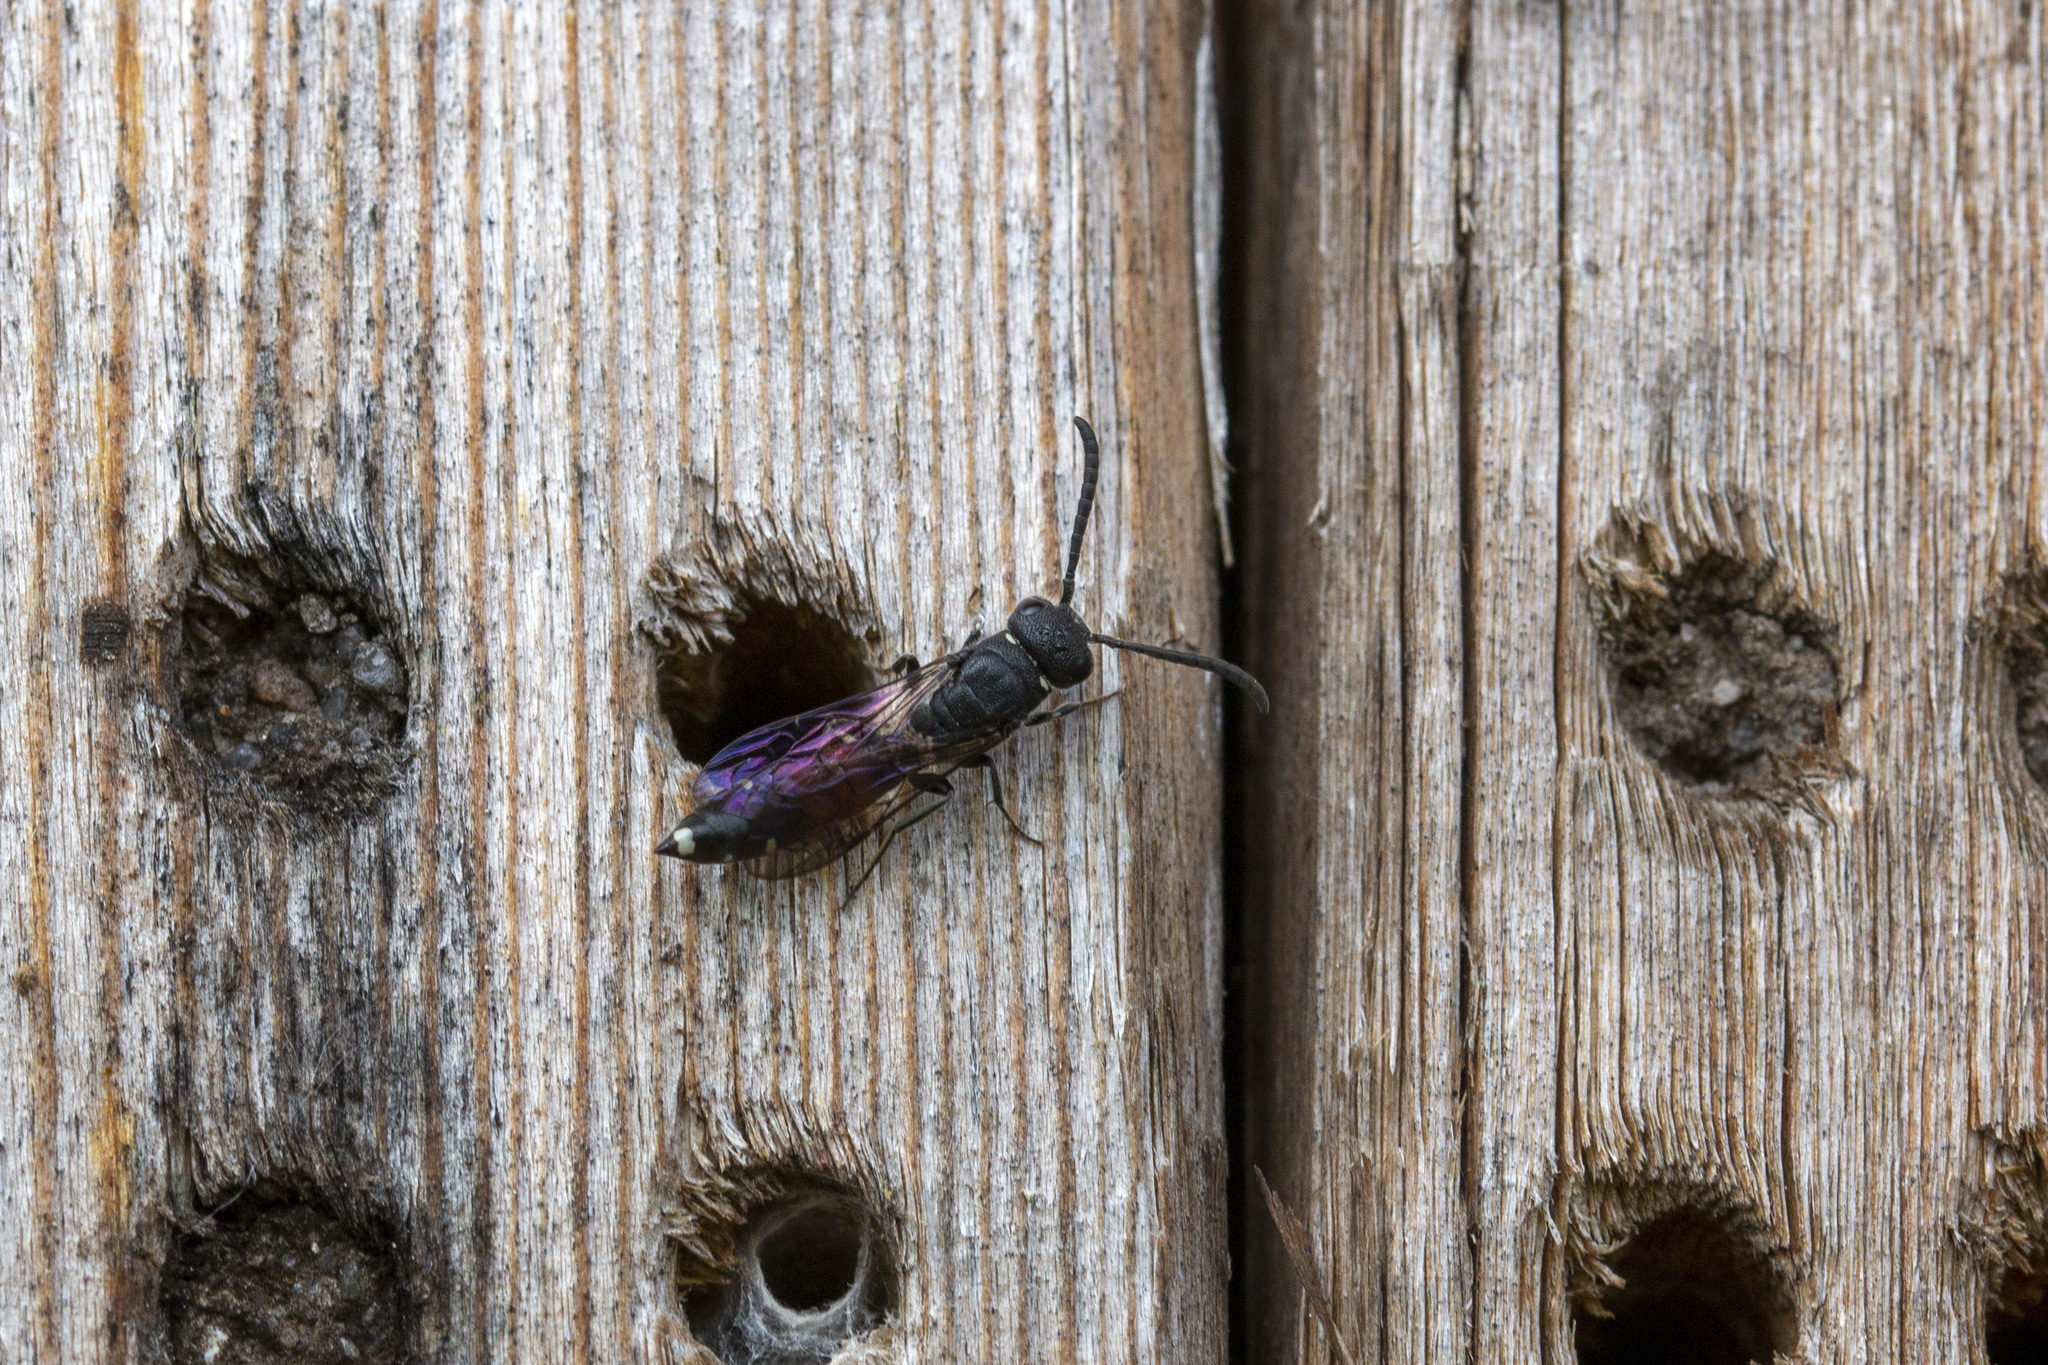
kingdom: Animalia
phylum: Arthropoda
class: Insecta
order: Hymenoptera
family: Sapygidae
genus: Sapyga
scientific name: Sapyga quinquepunctata
